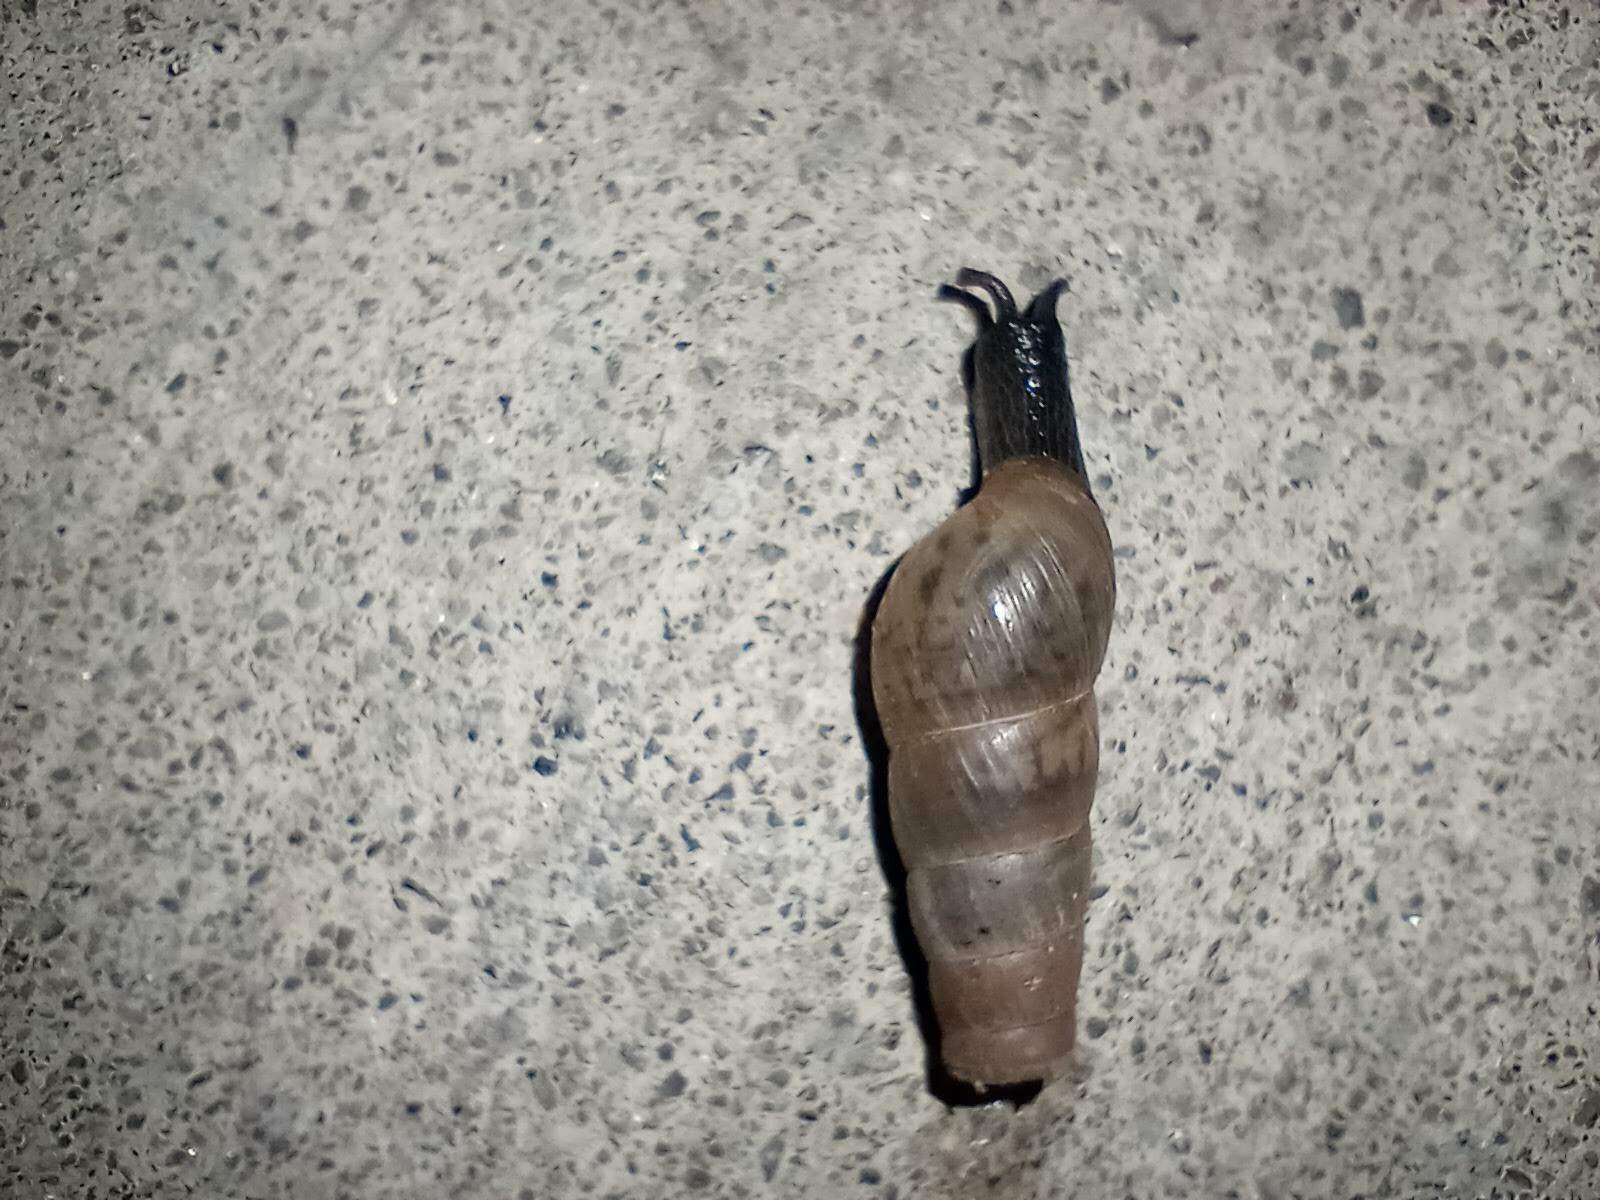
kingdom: Animalia
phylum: Mollusca
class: Gastropoda
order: Stylommatophora
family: Achatinidae
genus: Rumina
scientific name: Rumina decollata
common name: Decollate snail
